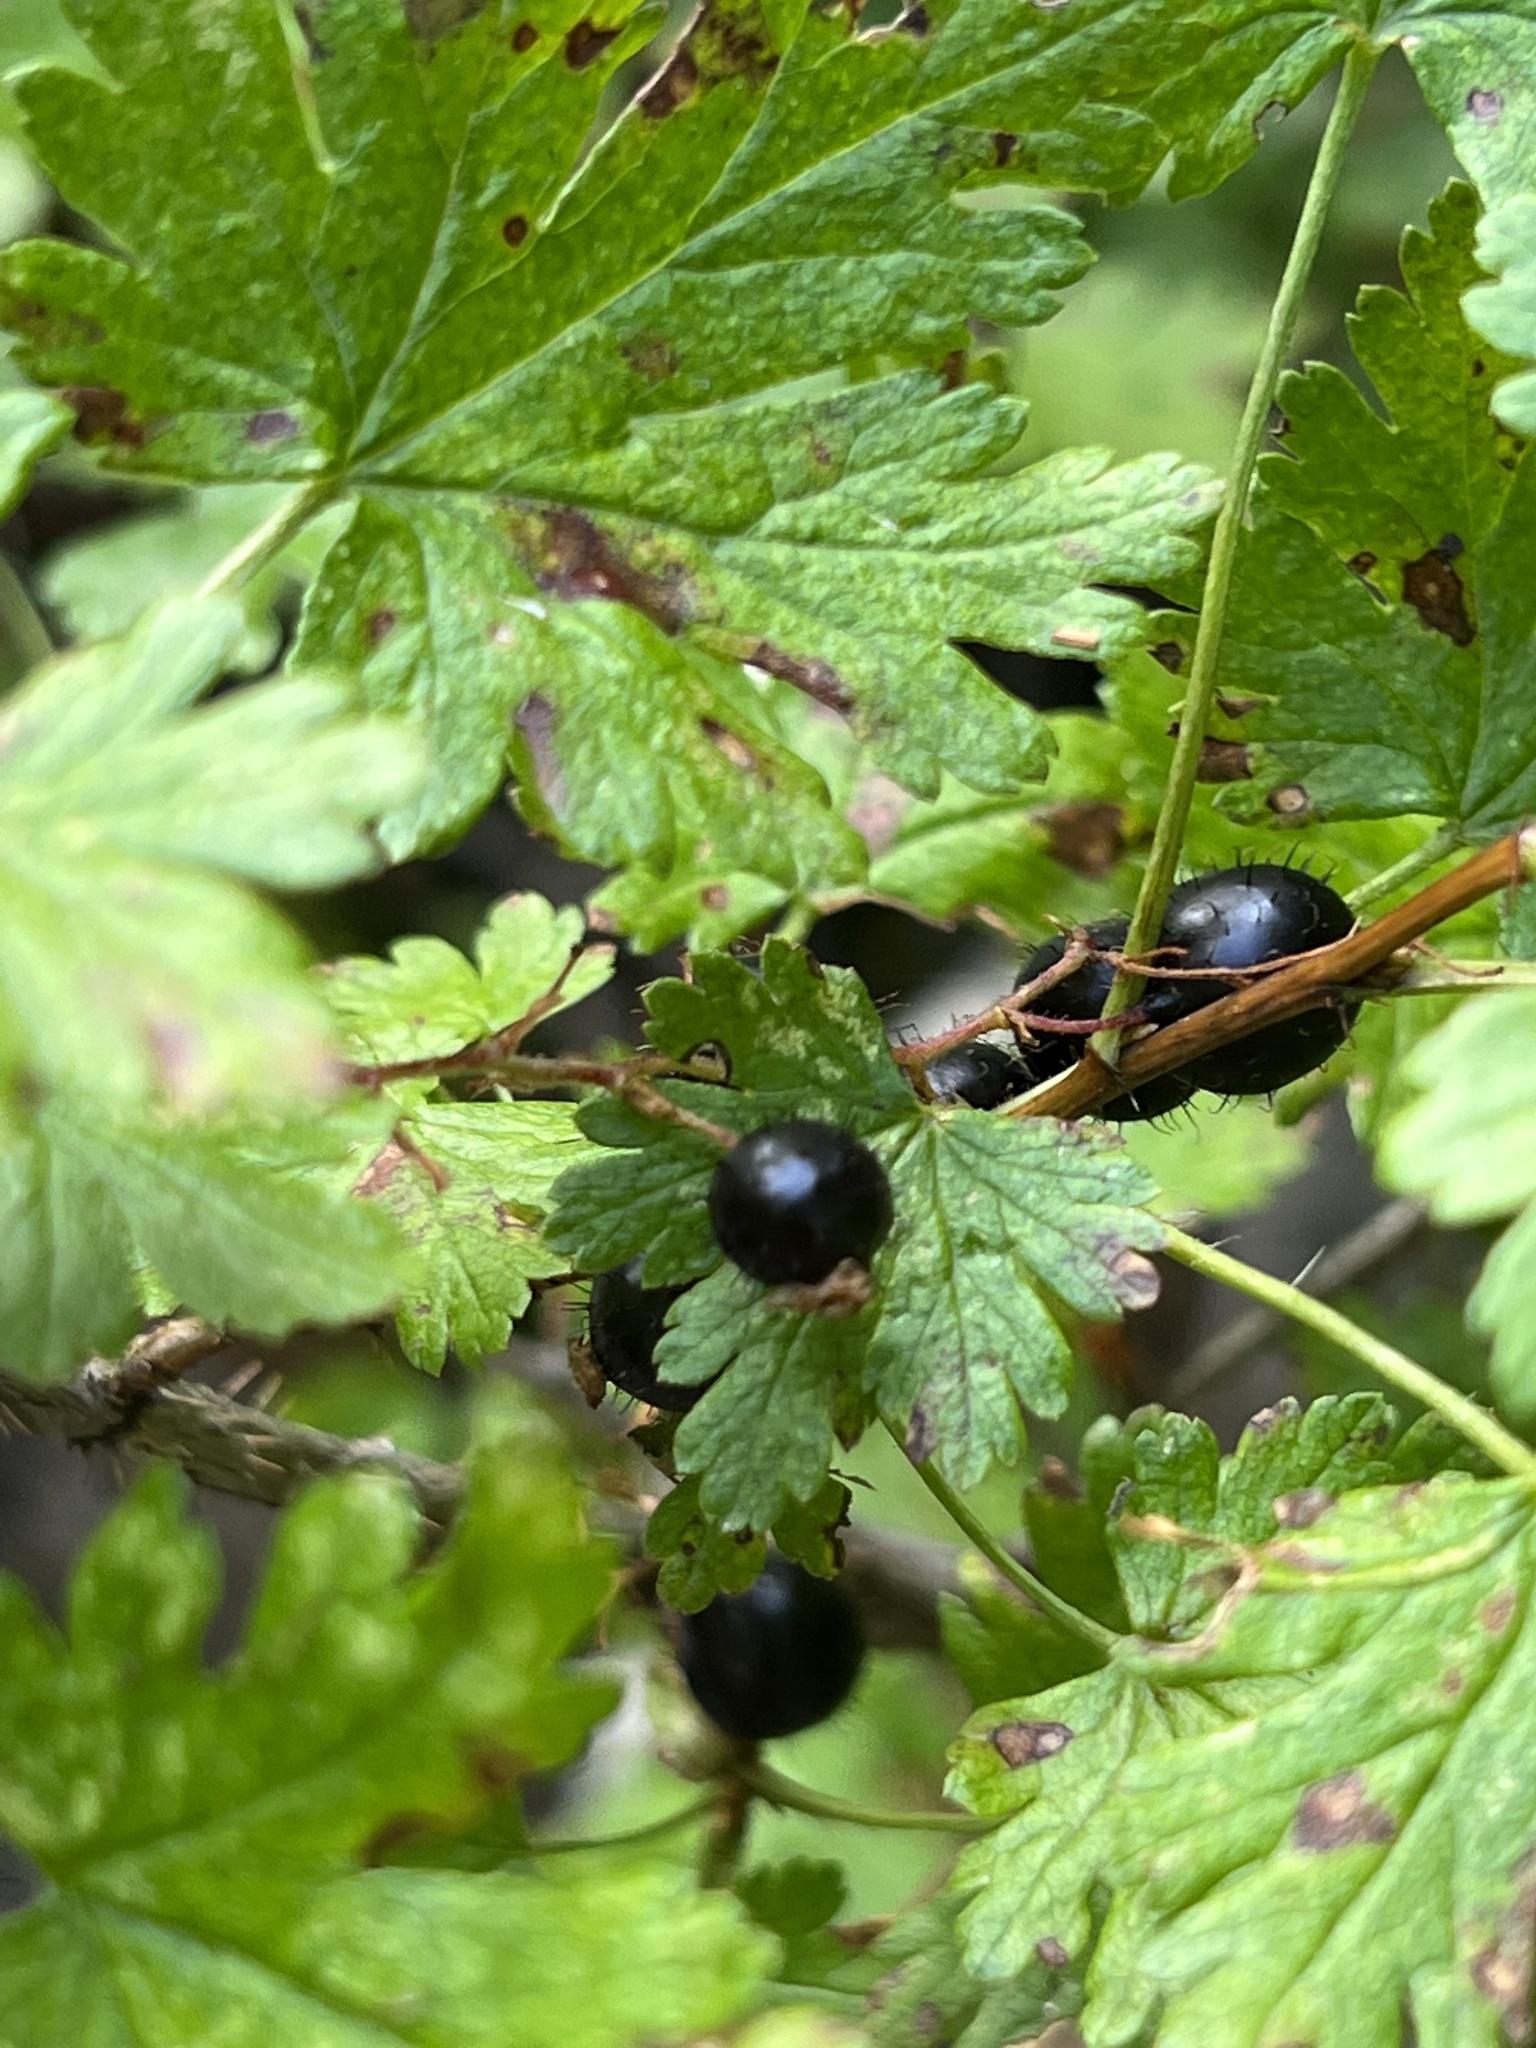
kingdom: Plantae
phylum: Tracheophyta
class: Magnoliopsida
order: Saxifragales
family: Grossulariaceae
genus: Ribes
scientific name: Ribes lacustre
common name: Black gooseberry
